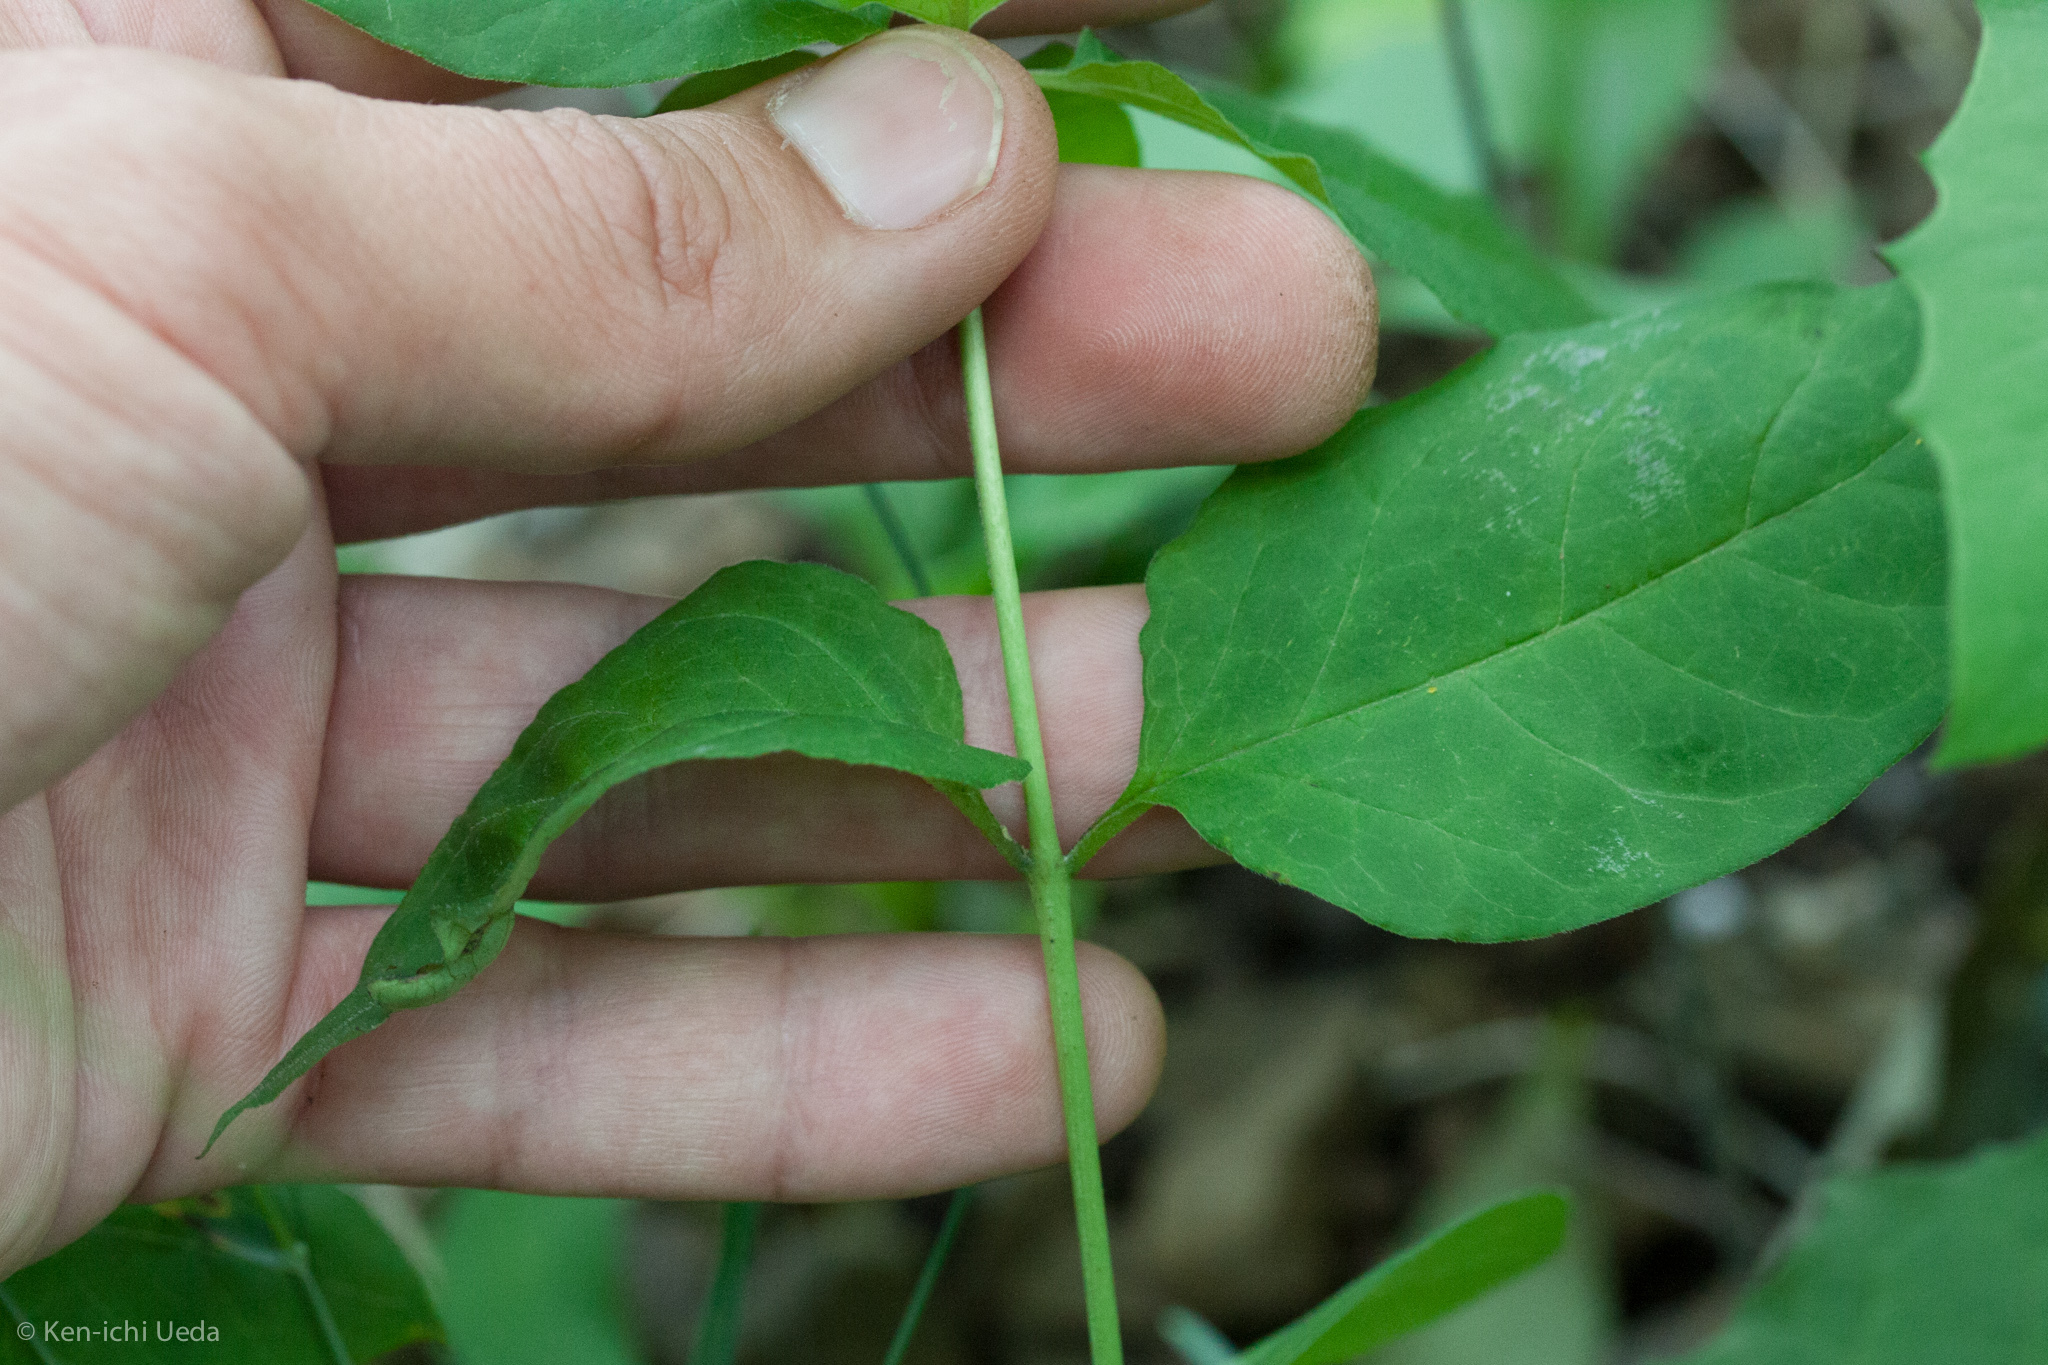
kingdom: Plantae
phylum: Tracheophyta
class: Magnoliopsida
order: Gentianales
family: Apocynaceae
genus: Asclepias
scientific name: Asclepias quadrifolia
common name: Whorled milkweed
